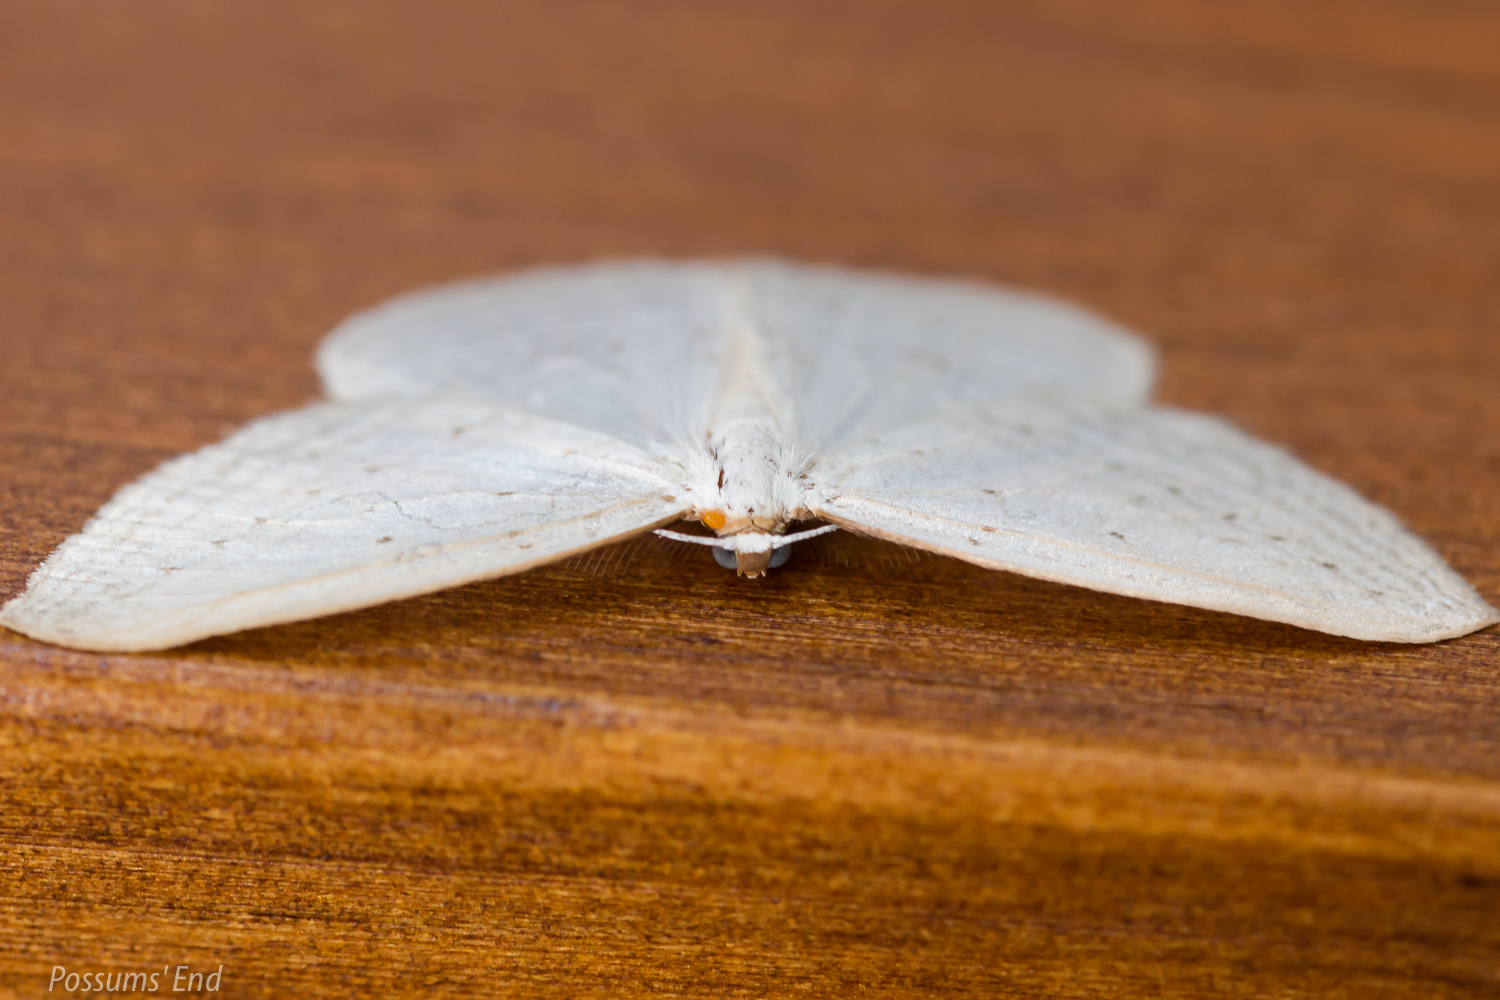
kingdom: Animalia
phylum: Arthropoda
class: Insecta
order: Lepidoptera
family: Geometridae
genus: Orthoclydon
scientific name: Orthoclydon praefectata
